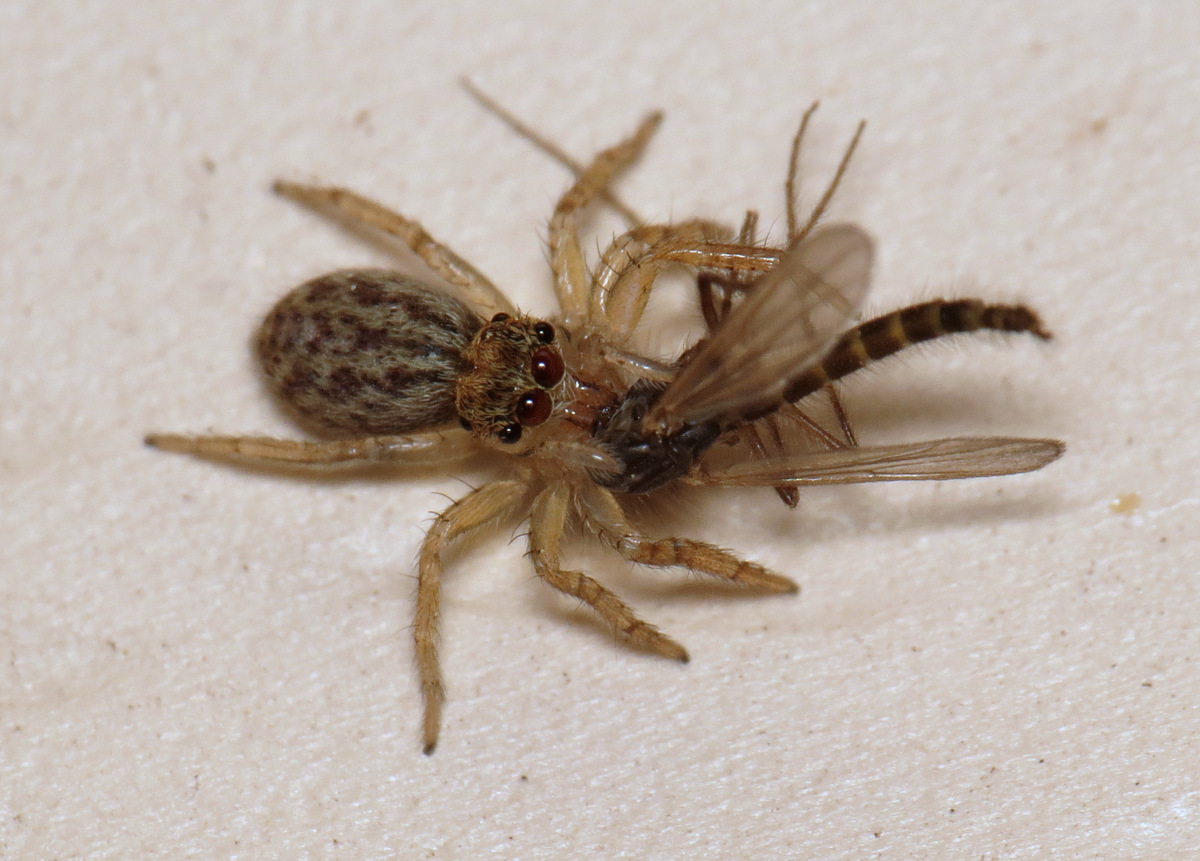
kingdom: Animalia
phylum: Arthropoda
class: Arachnida
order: Araneae
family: Salticidae
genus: Maevia
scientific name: Maevia inclemens
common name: Dimorphic jumper
